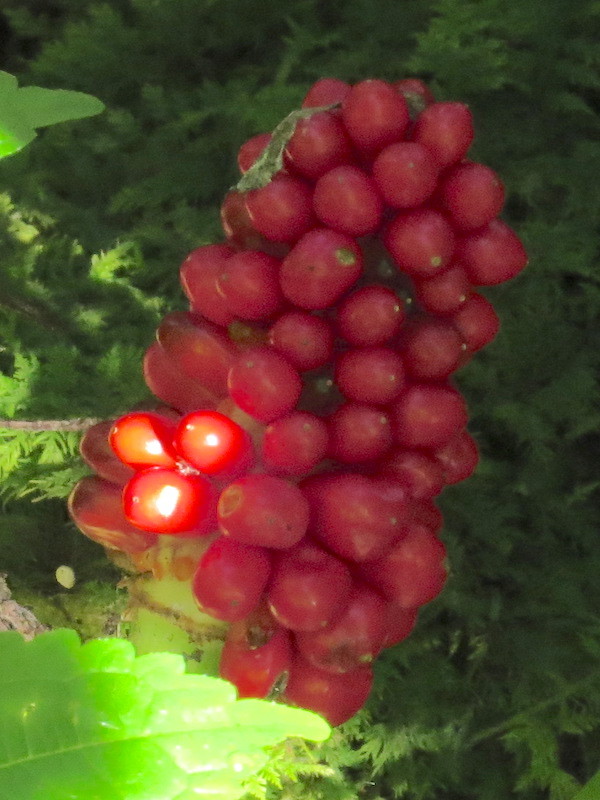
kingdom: Plantae
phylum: Tracheophyta
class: Liliopsida
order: Alismatales
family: Araceae
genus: Arisaema
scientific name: Arisaema triphyllum
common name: Jack-in-the-pulpit
